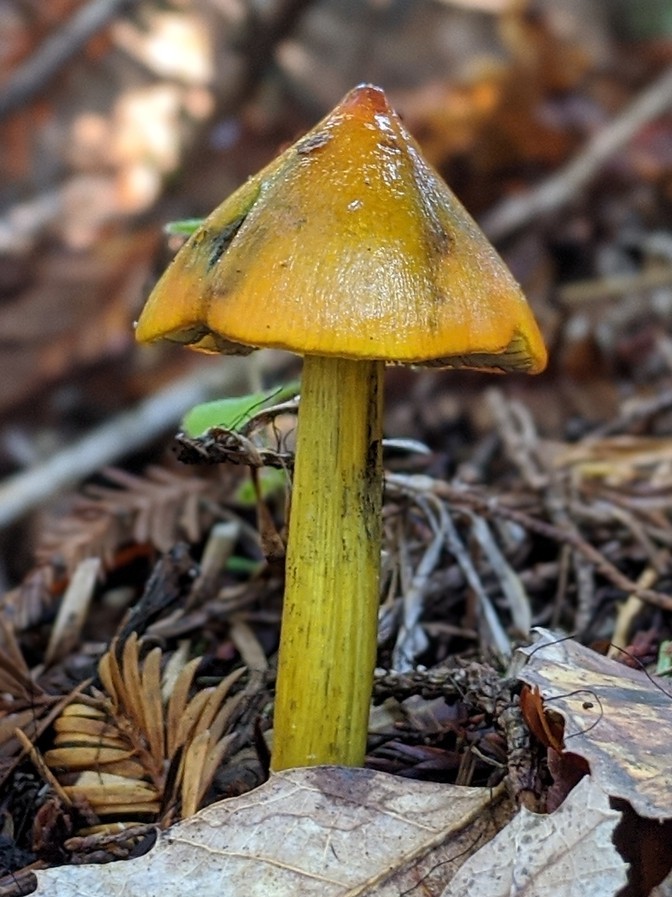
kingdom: Fungi
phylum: Basidiomycota
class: Agaricomycetes
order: Agaricales
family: Hygrophoraceae
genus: Hygrocybe
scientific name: Hygrocybe singeri
